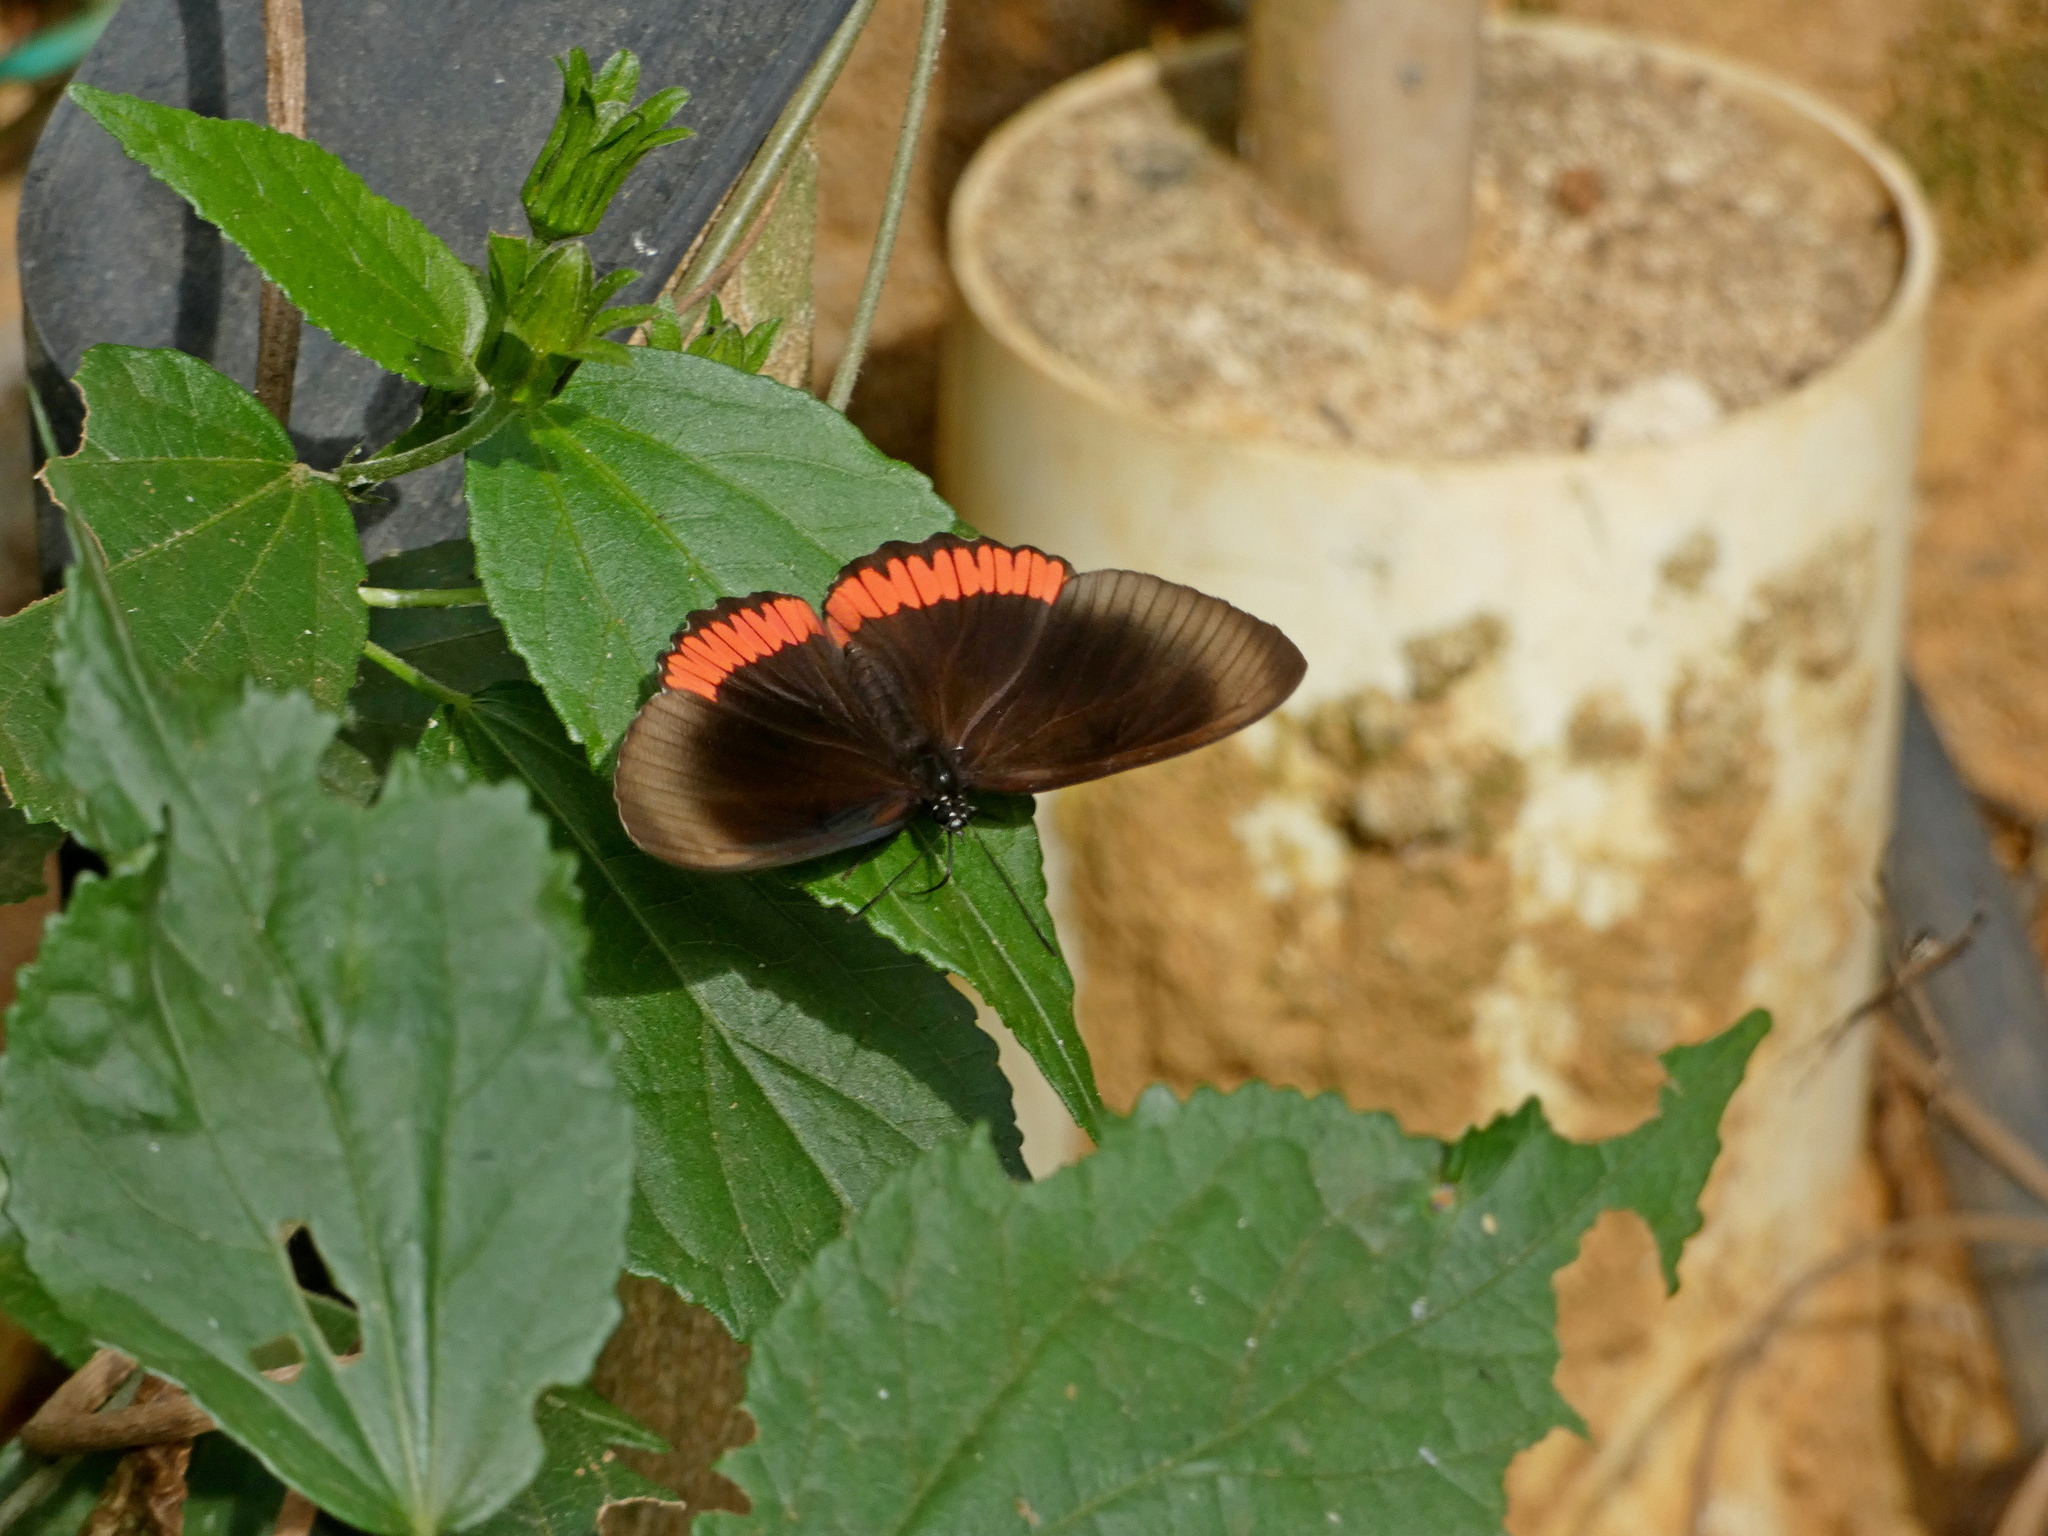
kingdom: Animalia
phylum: Arthropoda
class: Insecta
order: Lepidoptera
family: Sesiidae
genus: Sesia
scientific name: Sesia Biblis hyperia
